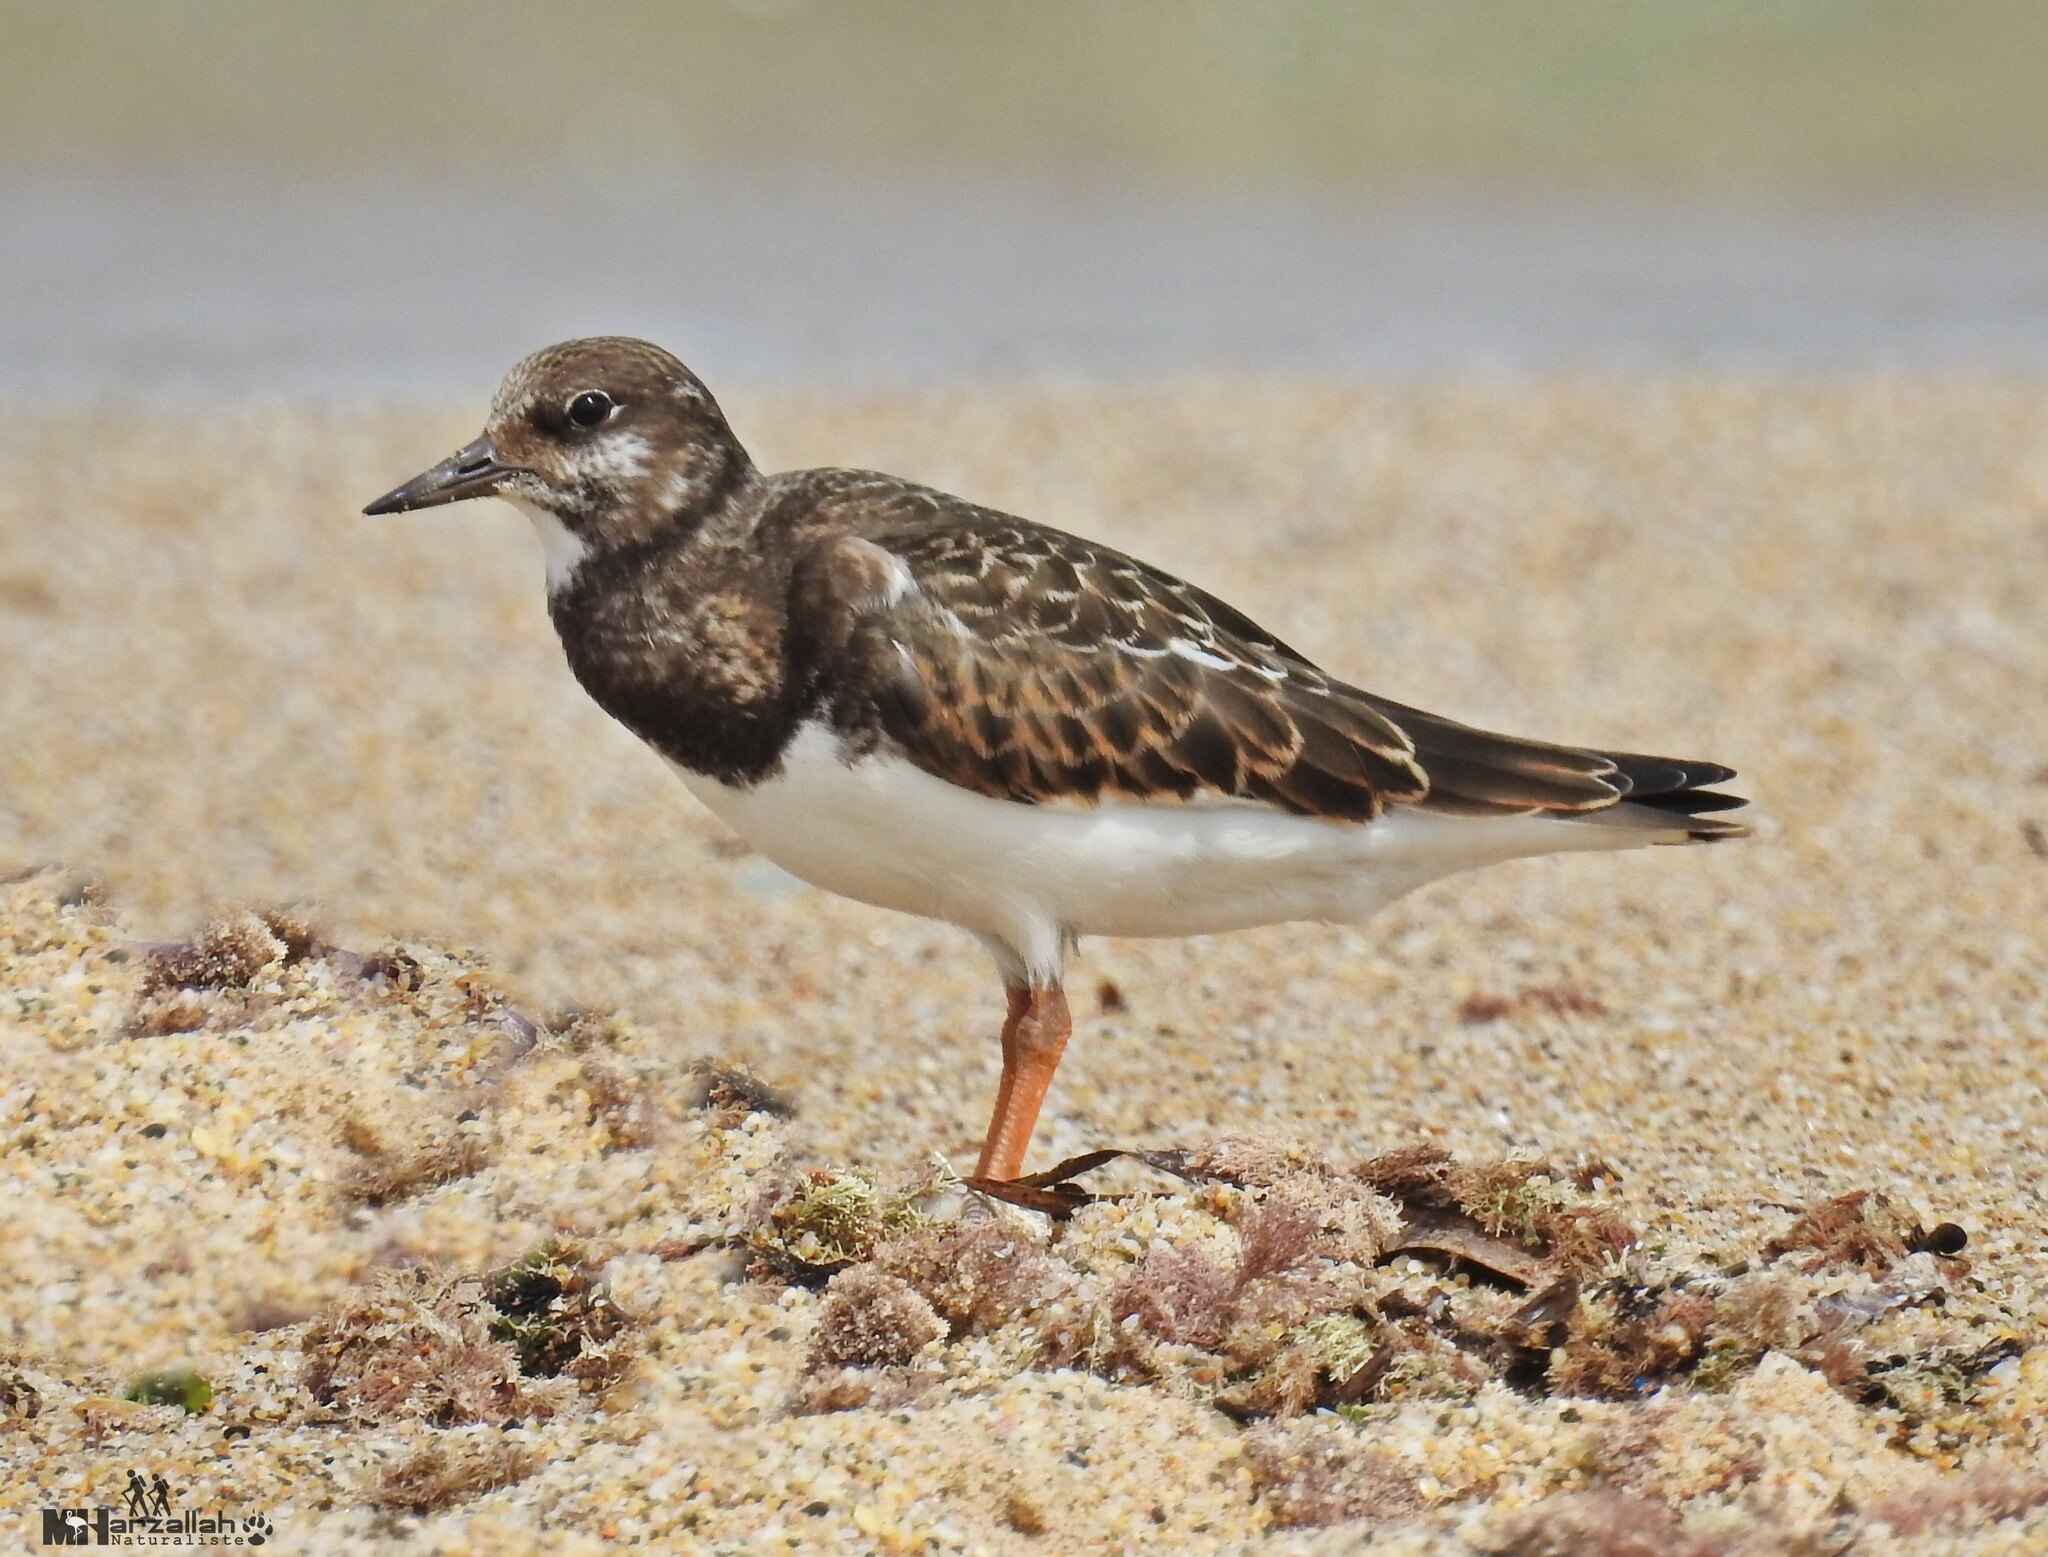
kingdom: Animalia
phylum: Chordata
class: Aves
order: Charadriiformes
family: Scolopacidae
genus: Arenaria
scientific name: Arenaria interpres
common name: Ruddy turnstone
